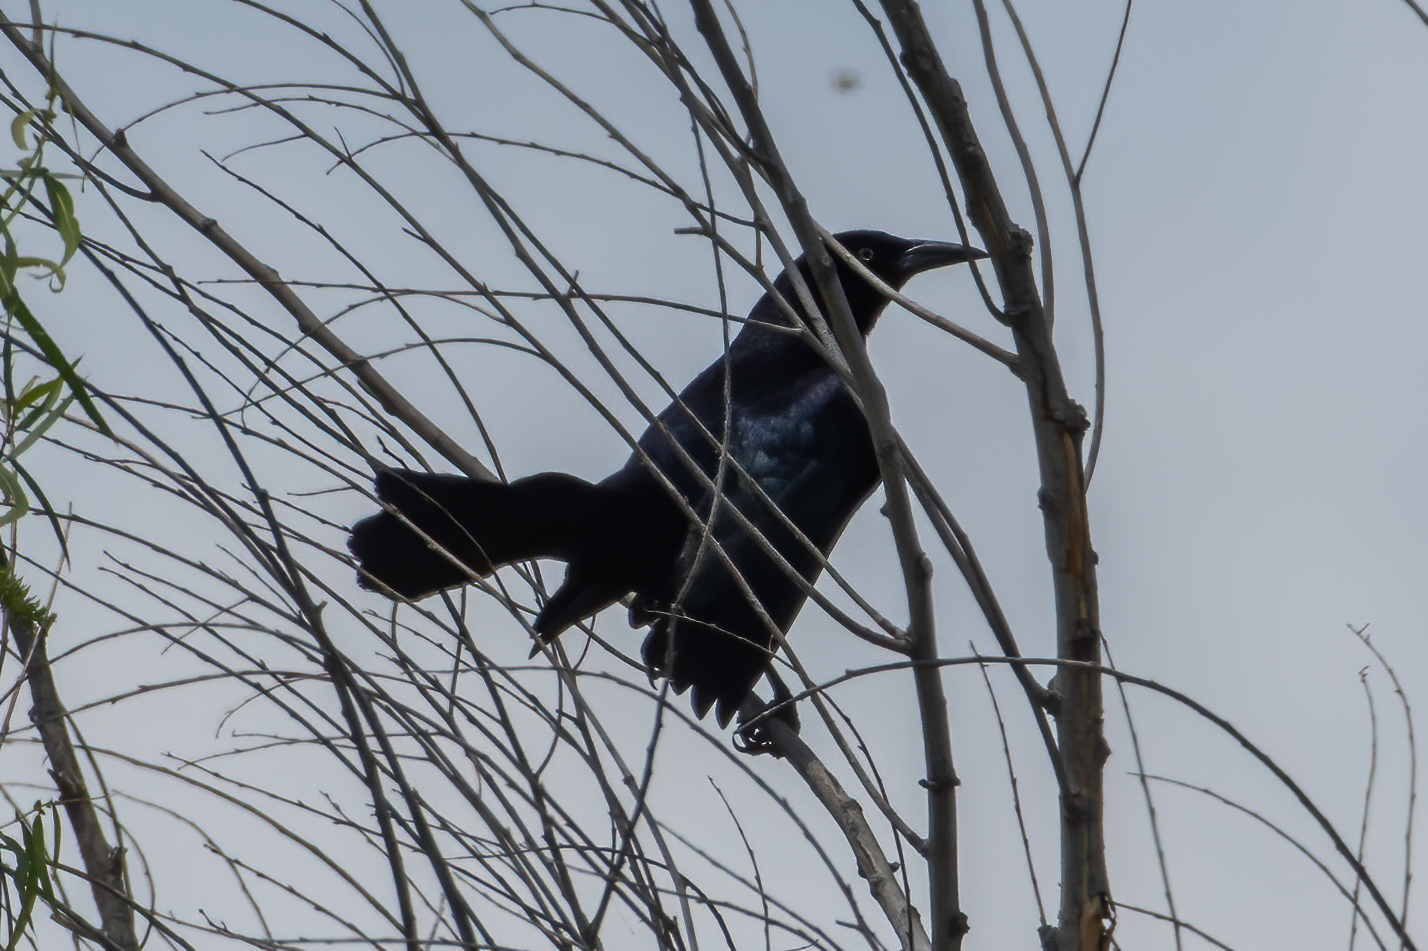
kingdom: Animalia
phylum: Chordata
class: Aves
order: Passeriformes
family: Icteridae
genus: Quiscalus
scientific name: Quiscalus mexicanus
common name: Great-tailed grackle
